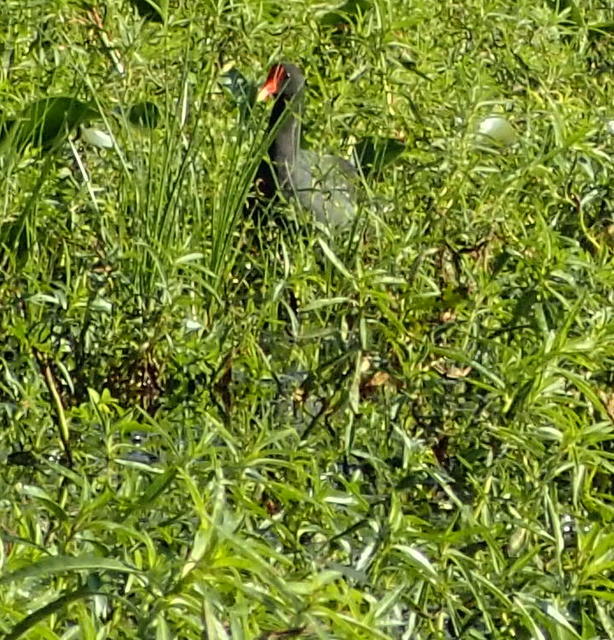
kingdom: Animalia
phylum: Chordata
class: Aves
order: Gruiformes
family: Rallidae
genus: Gallinula
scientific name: Gallinula chloropus
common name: Common moorhen
